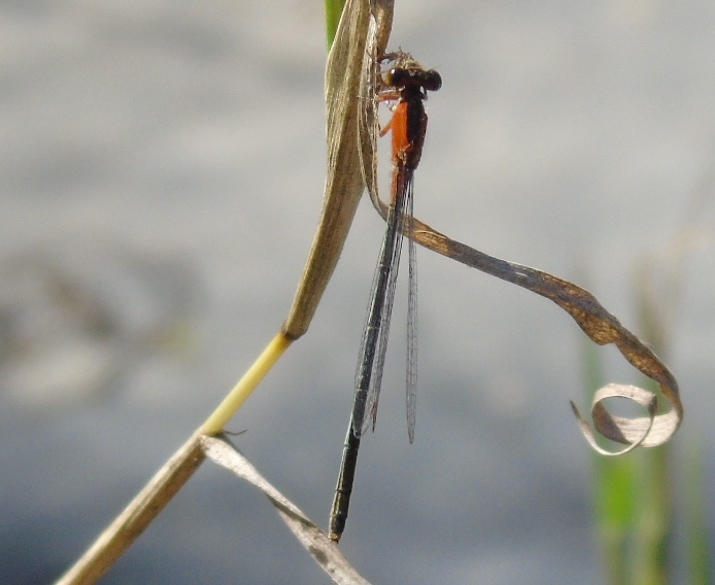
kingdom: Animalia
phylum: Arthropoda
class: Insecta
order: Odonata
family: Coenagrionidae
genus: Ischnura
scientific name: Ischnura ramburii
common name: Rambur's forktail
